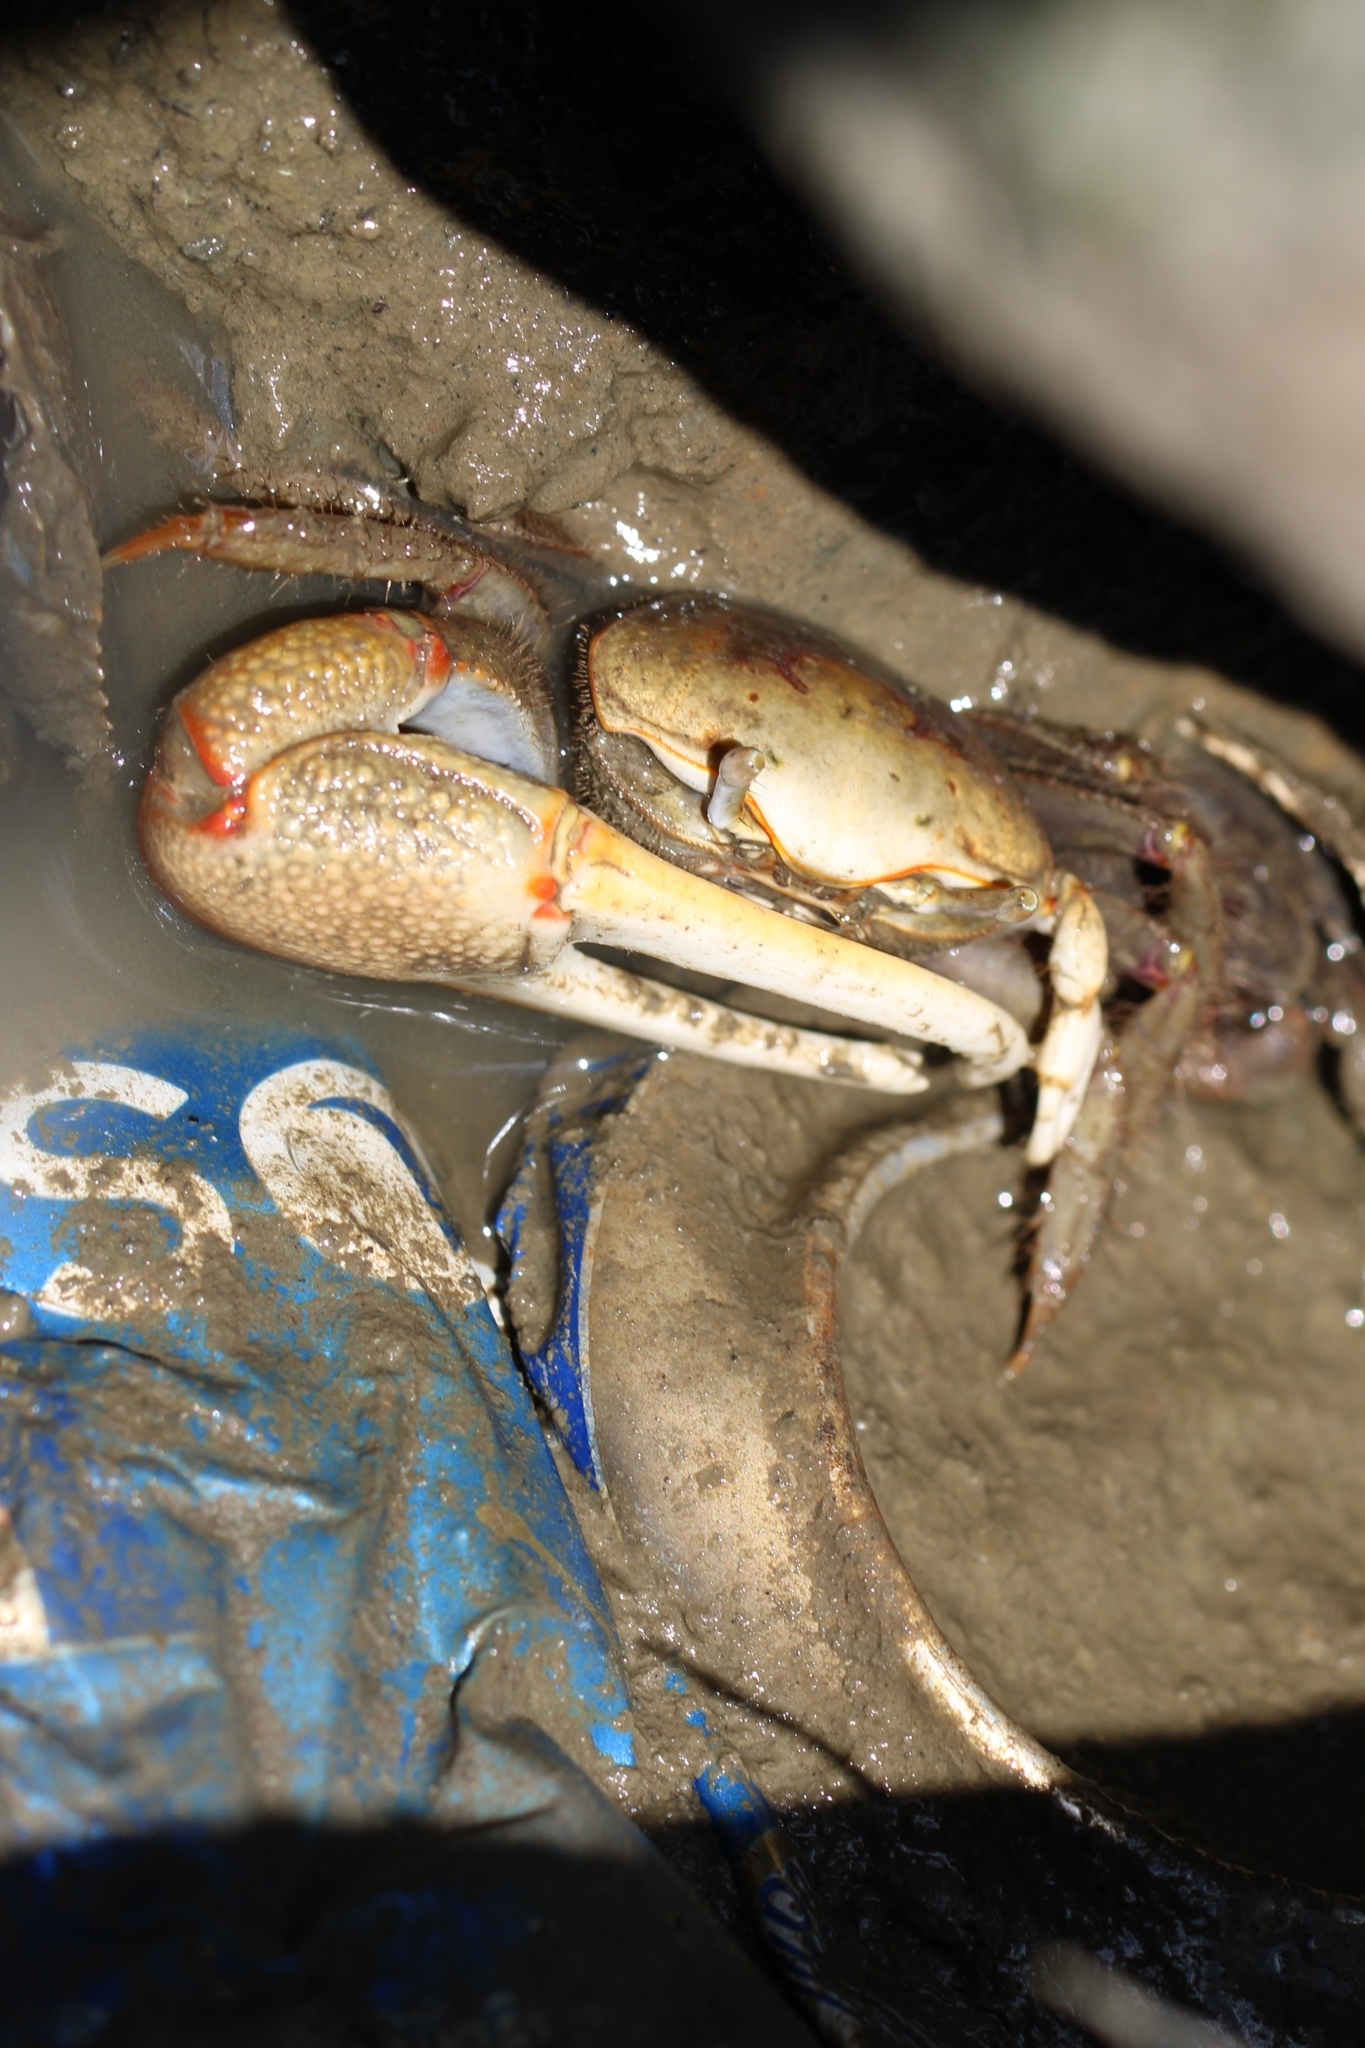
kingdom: Animalia
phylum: Arthropoda
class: Malacostraca
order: Decapoda
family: Ocypodidae
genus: Minuca
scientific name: Minuca minax
